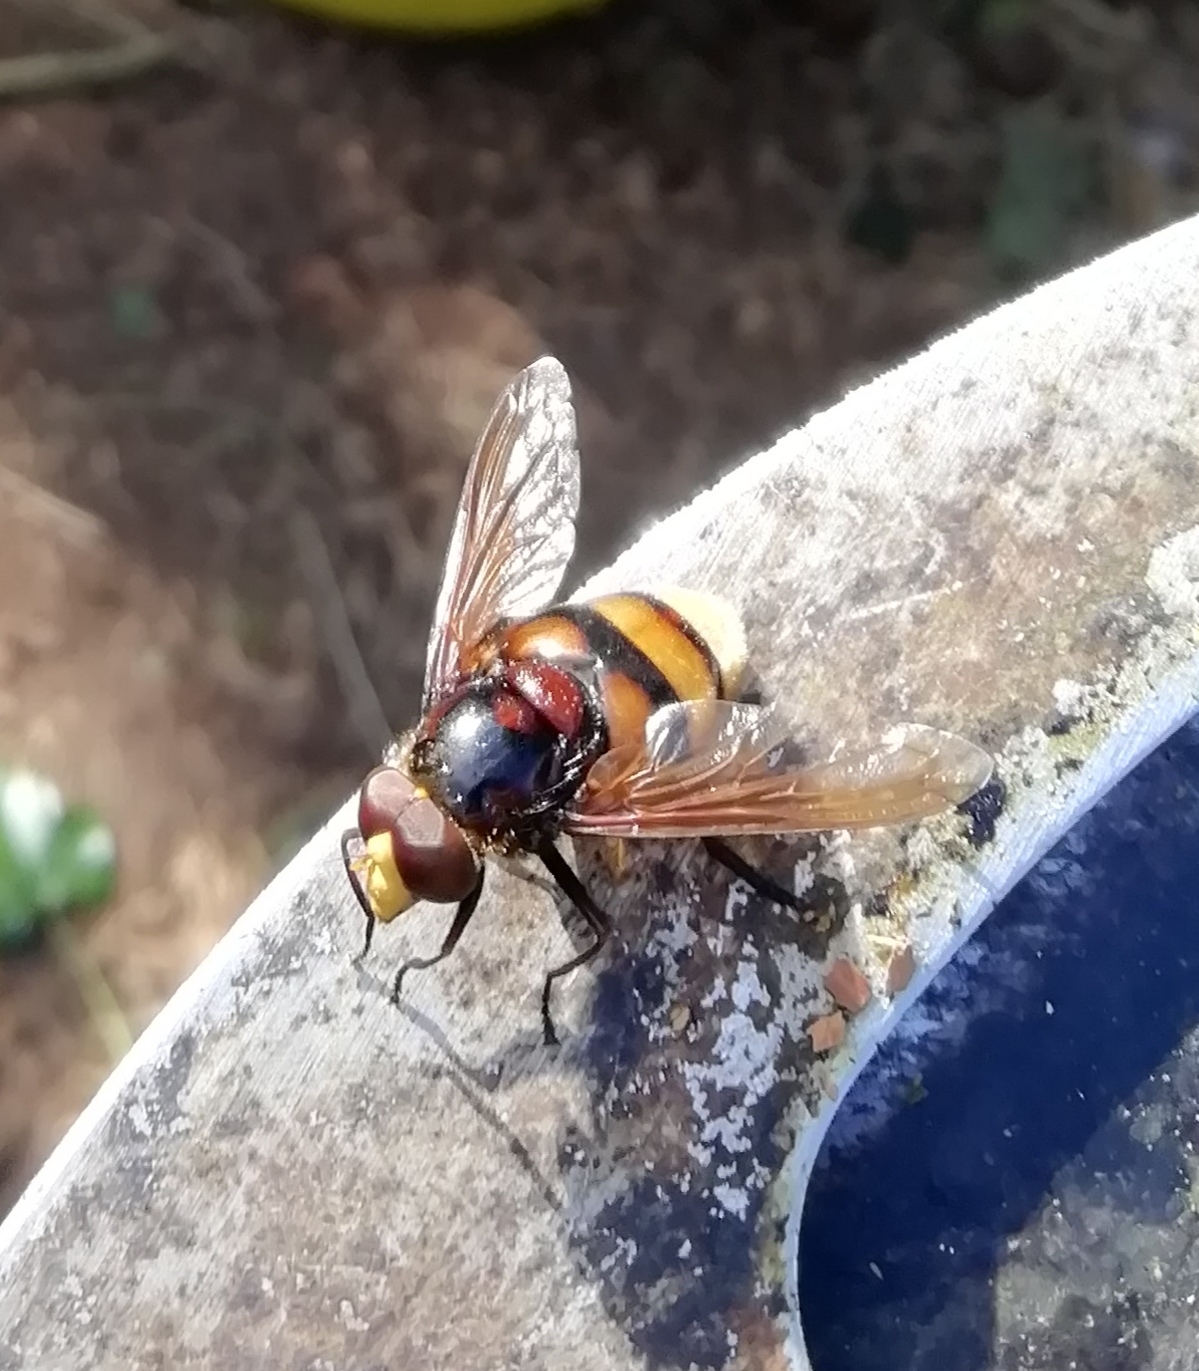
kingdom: Animalia
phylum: Arthropoda
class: Insecta
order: Diptera
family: Syrphidae
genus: Volucella
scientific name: Volucella zonaria
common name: Hornet hoverfly
